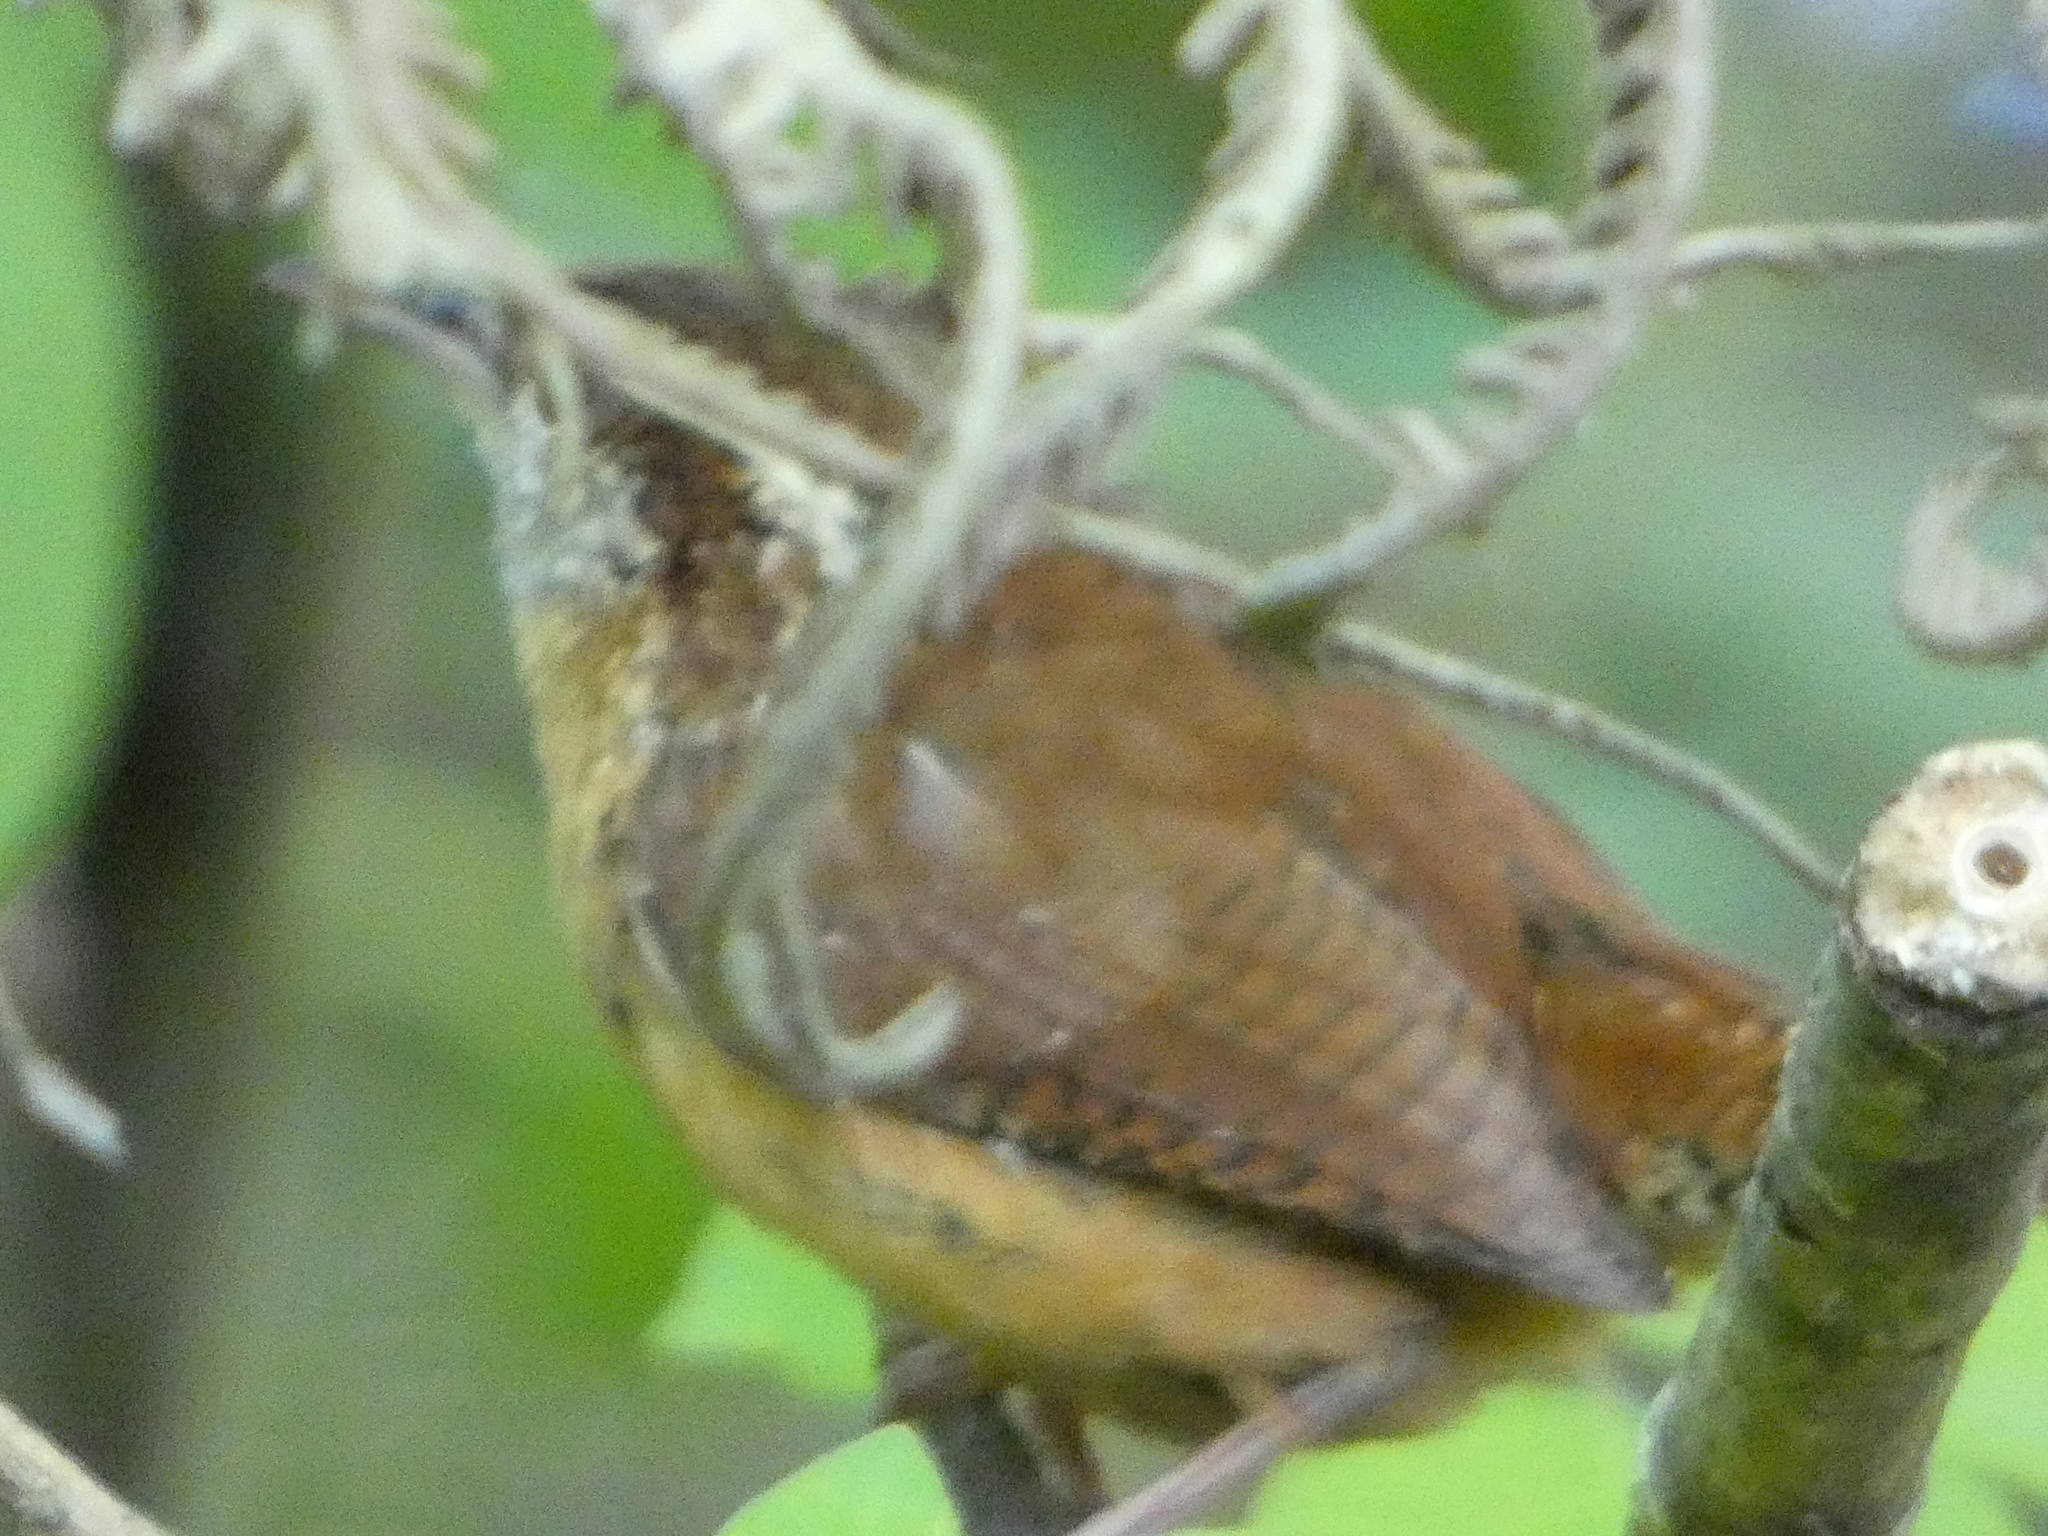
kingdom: Animalia
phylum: Chordata
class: Aves
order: Passeriformes
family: Troglodytidae
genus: Thryothorus
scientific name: Thryothorus ludovicianus
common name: Carolina wren
